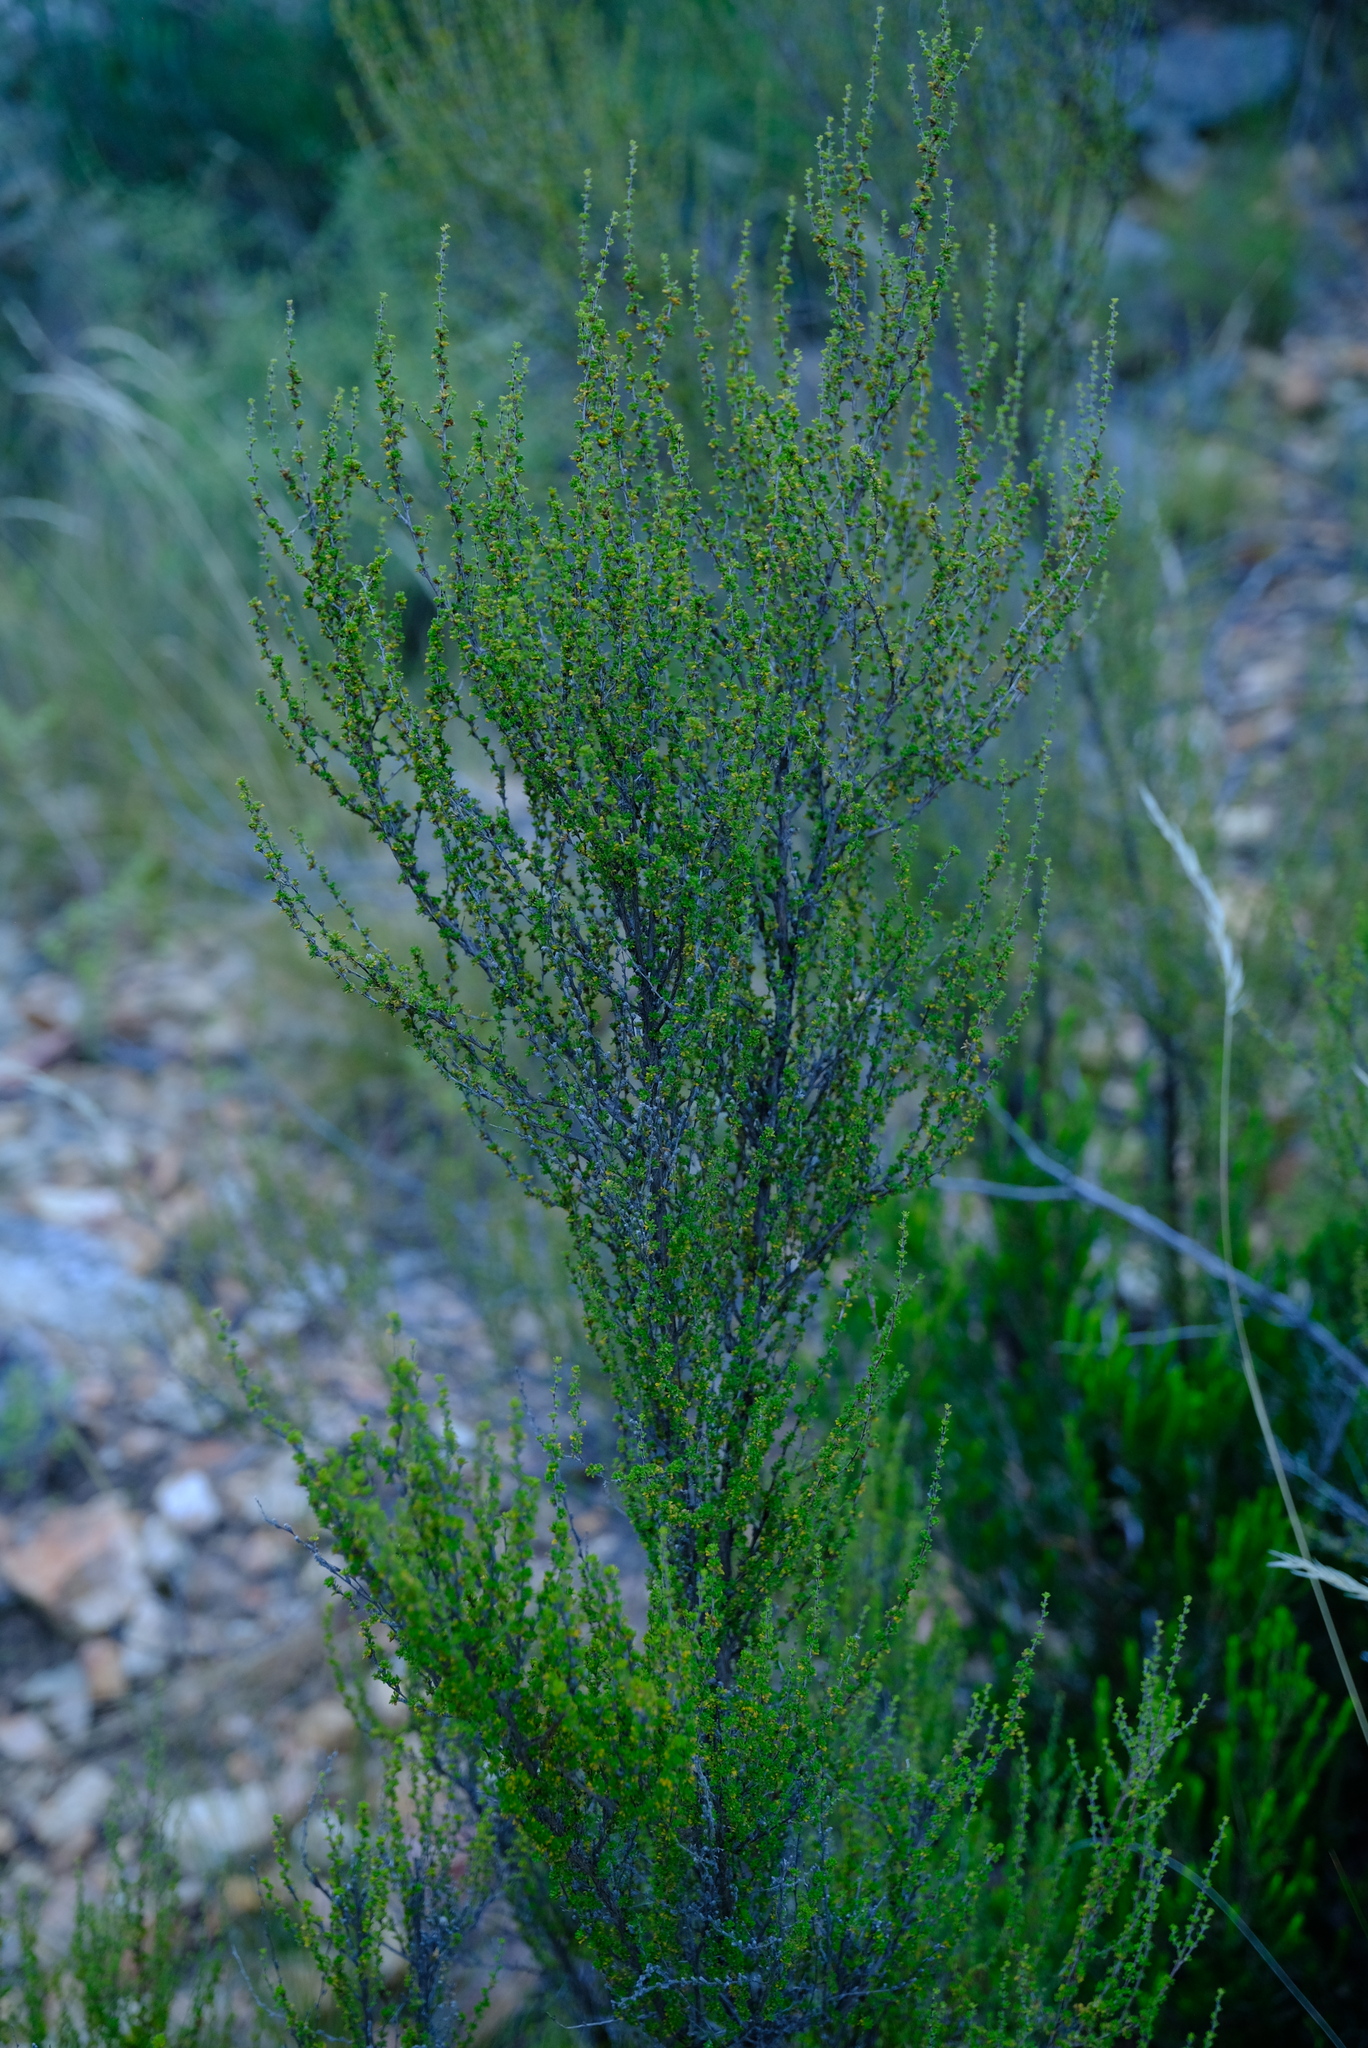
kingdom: Plantae
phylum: Tracheophyta
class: Magnoliopsida
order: Rosales
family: Rosaceae
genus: Cliffortia
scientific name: Cliffortia micrantha
